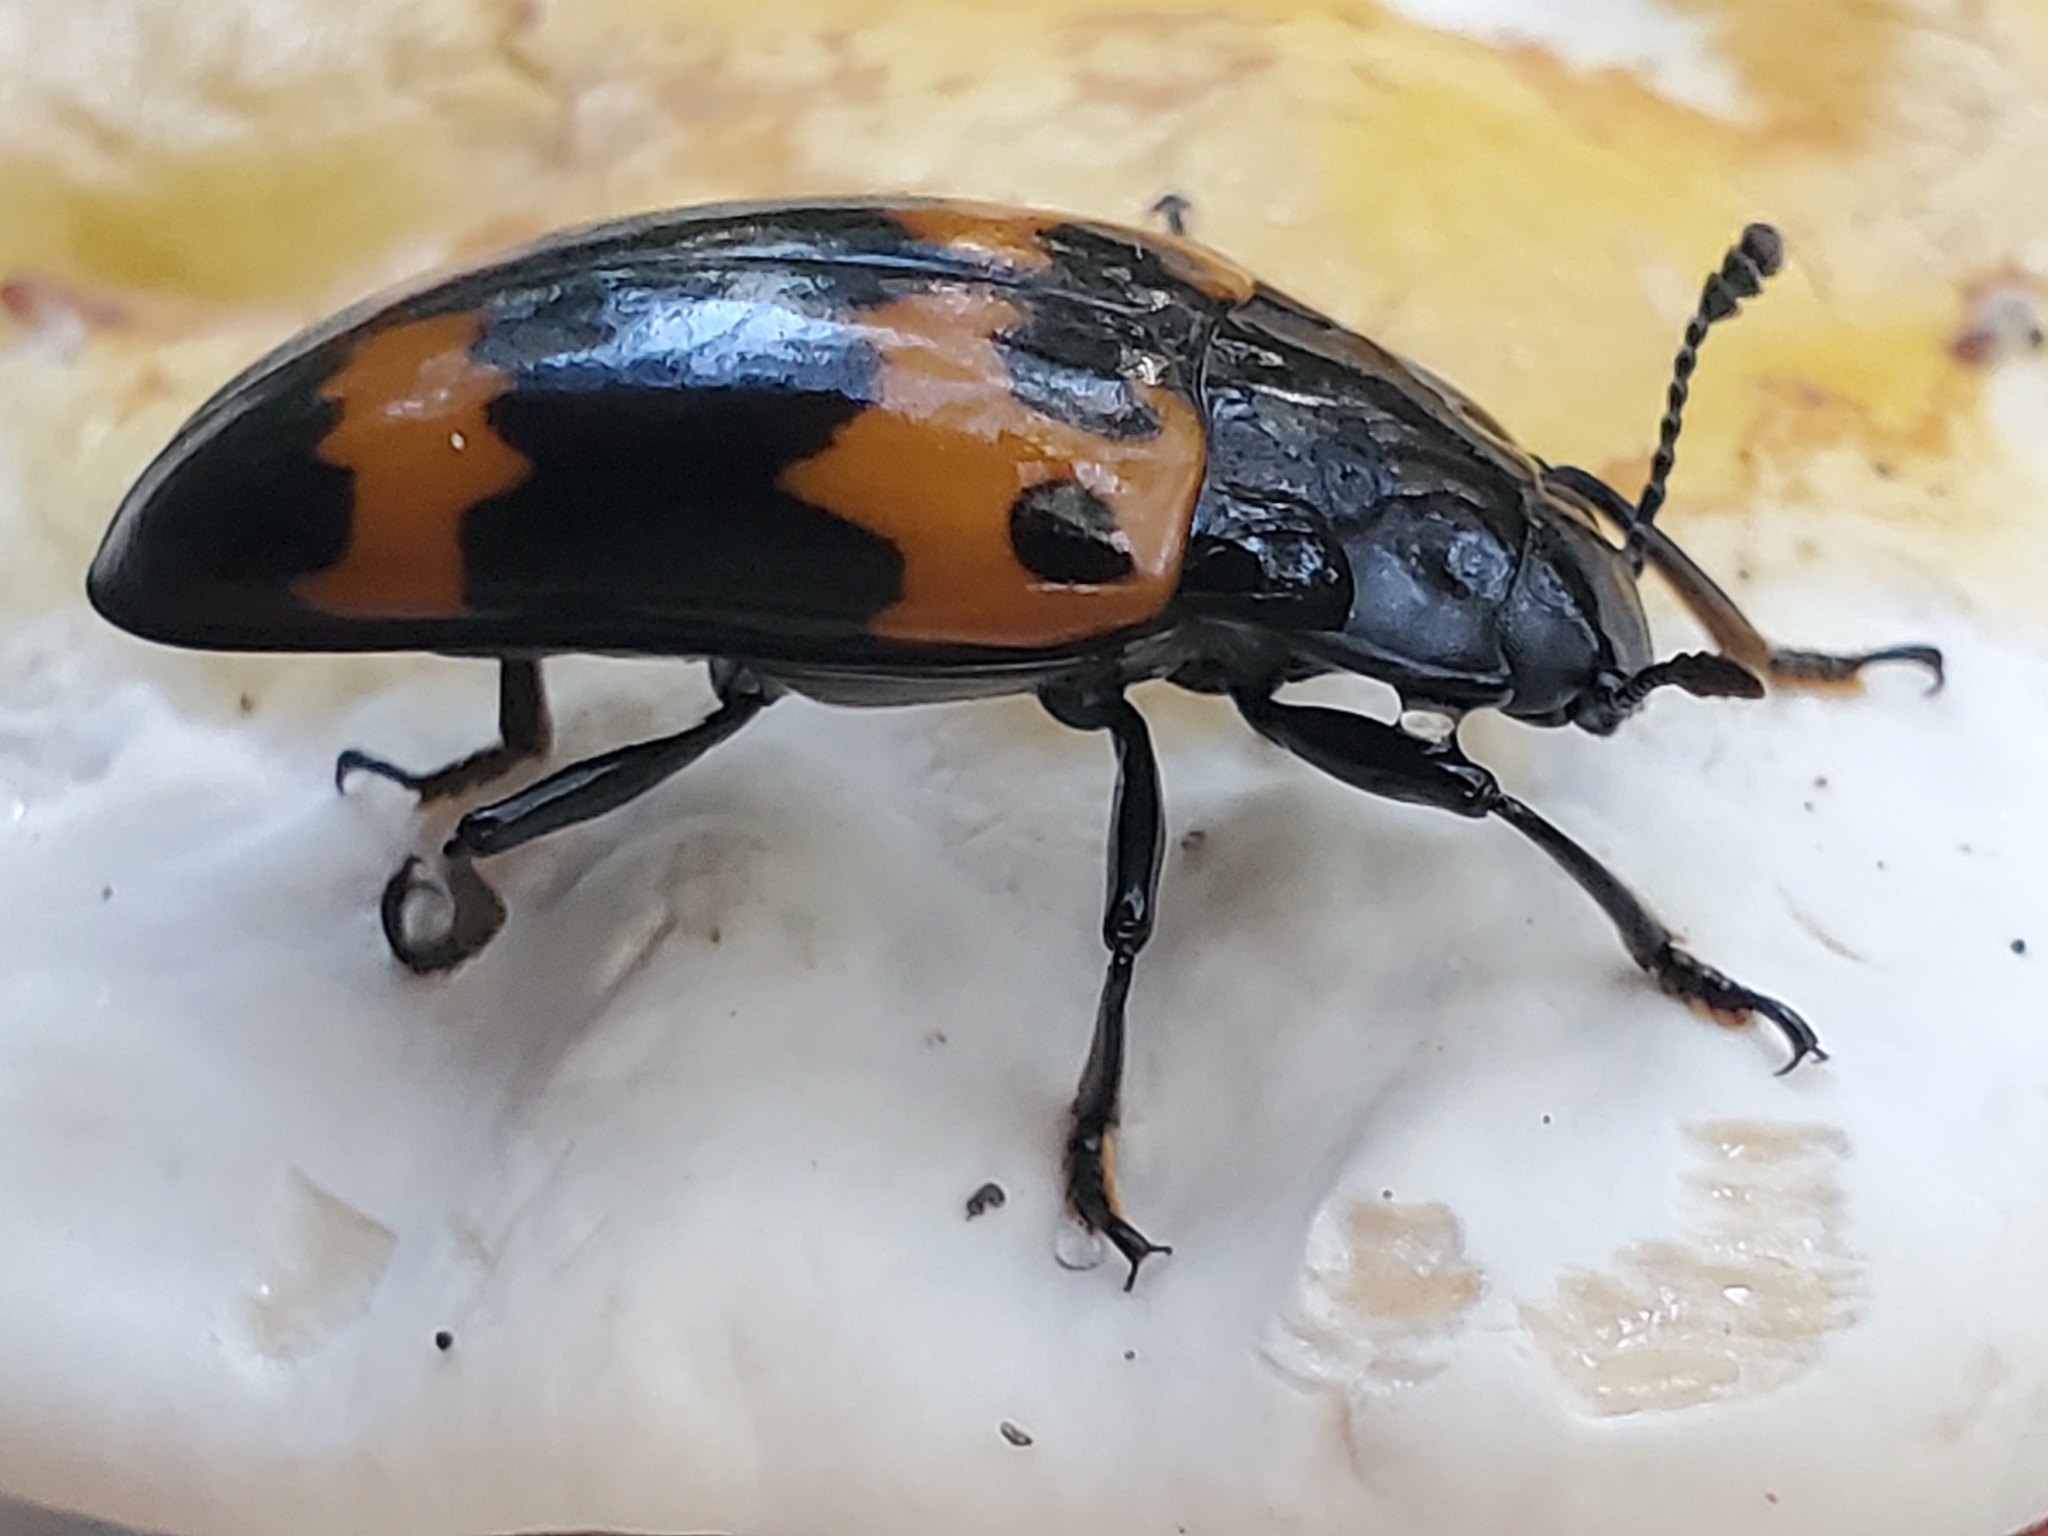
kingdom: Animalia
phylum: Arthropoda
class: Insecta
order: Coleoptera
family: Erotylidae
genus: Megalodacne
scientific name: Megalodacne heros
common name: Pleasing fungus beetle
